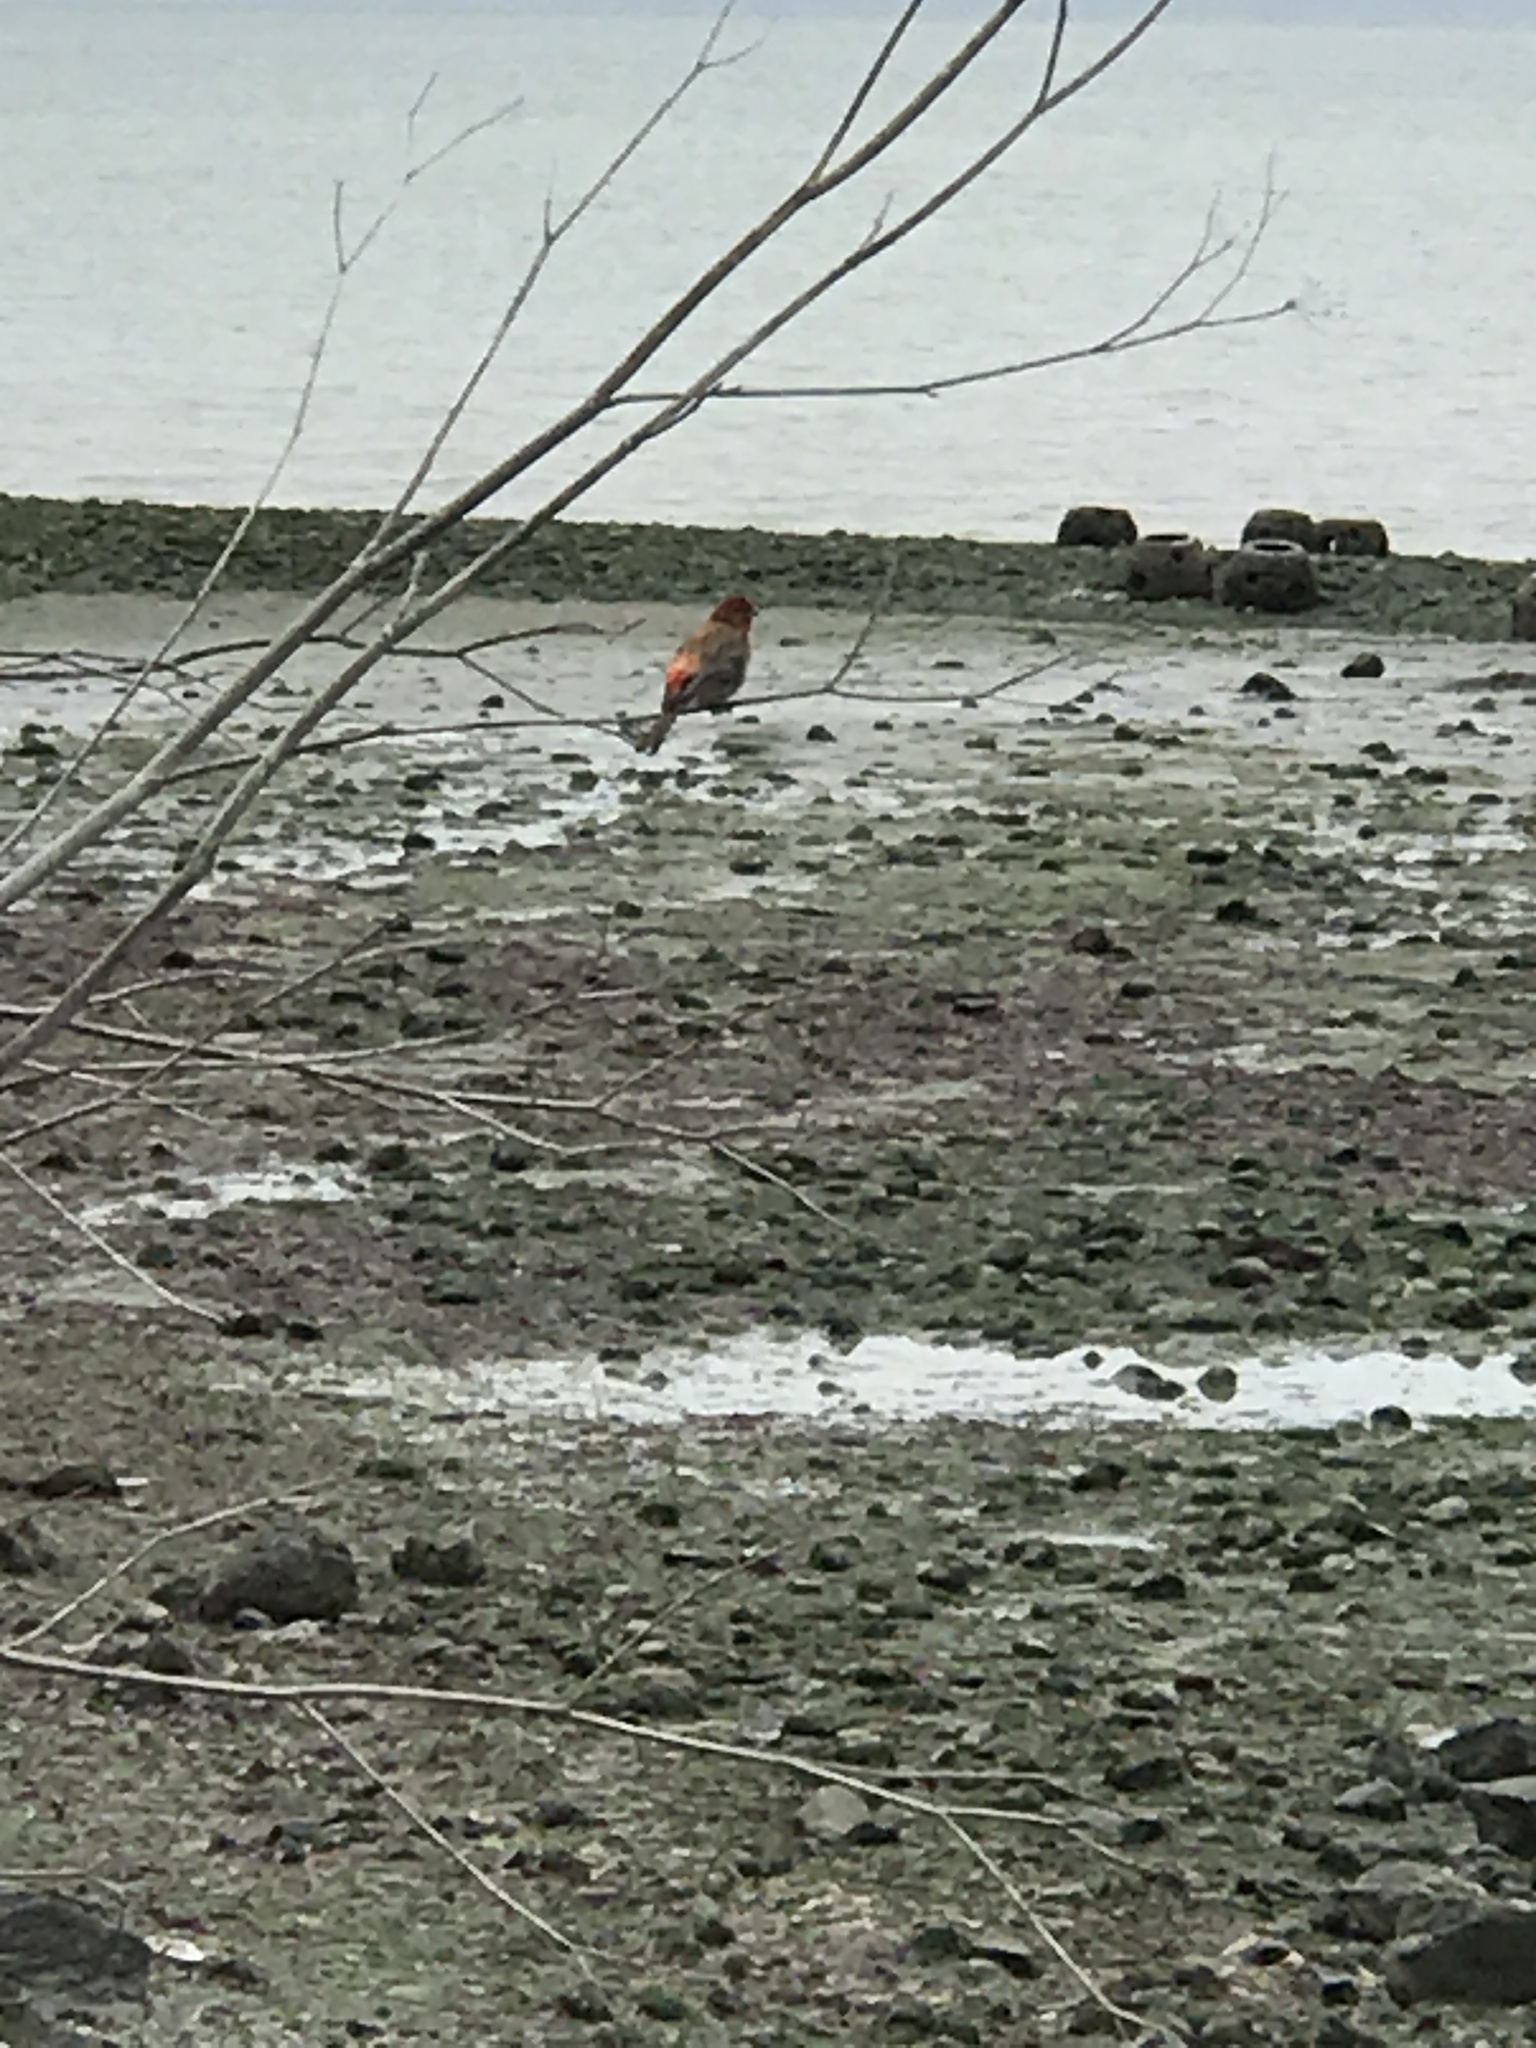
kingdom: Animalia
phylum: Chordata
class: Aves
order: Passeriformes
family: Fringillidae
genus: Haemorhous
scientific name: Haemorhous mexicanus
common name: House finch
